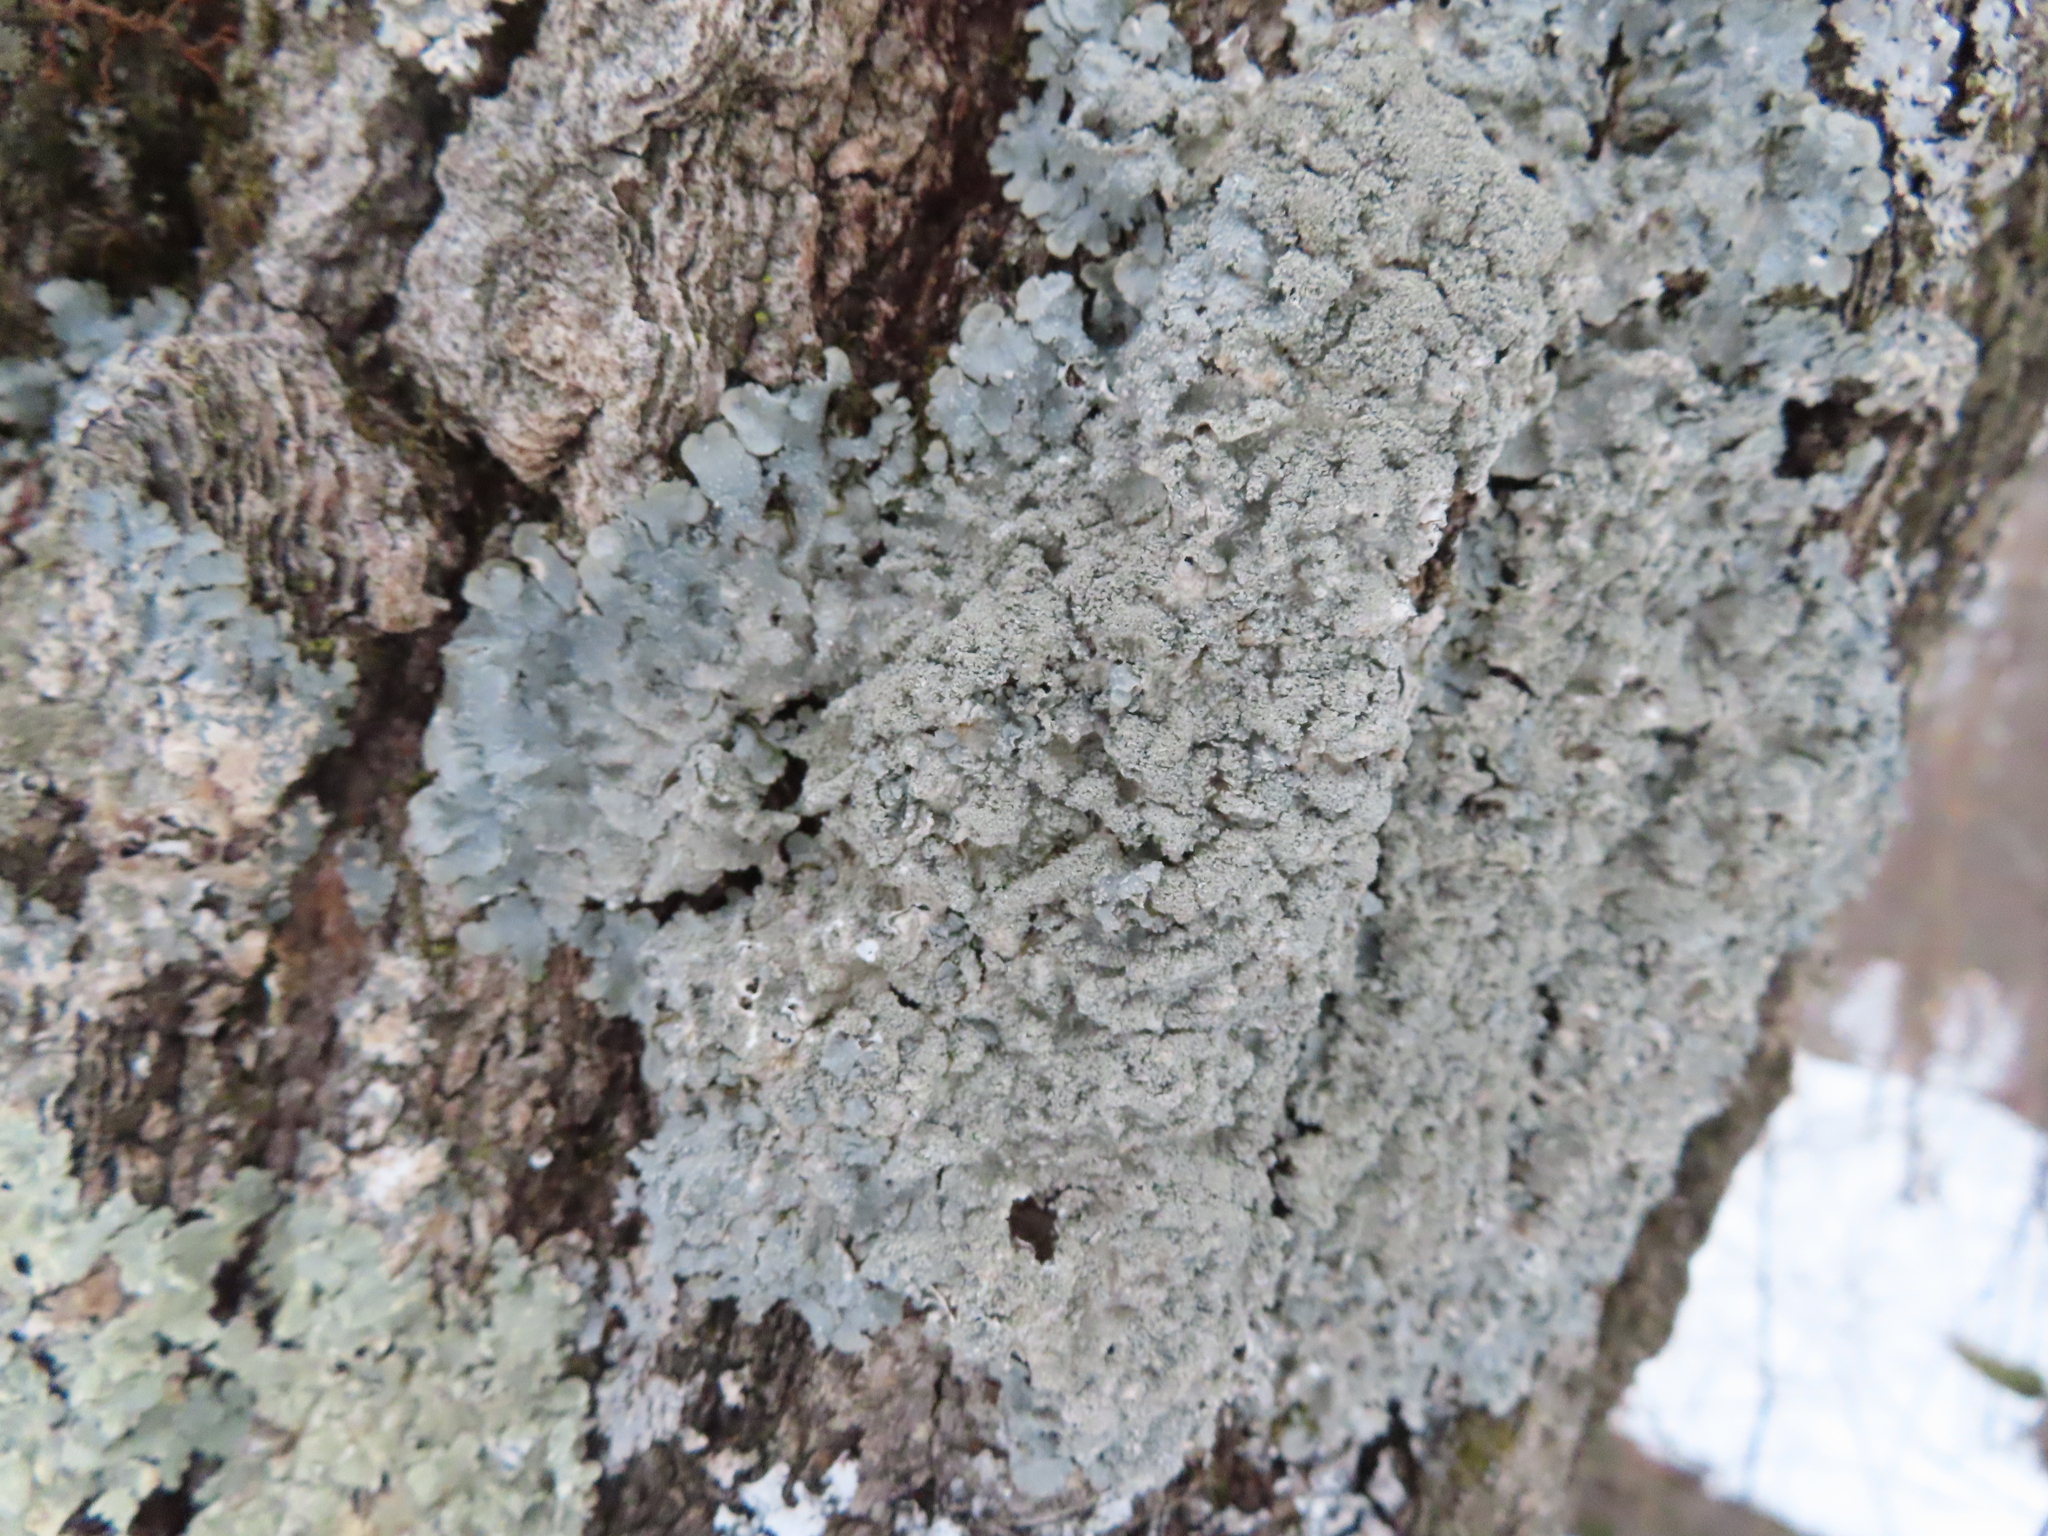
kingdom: Fungi
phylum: Ascomycota
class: Lecanoromycetes
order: Lecanorales
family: Parmeliaceae
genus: Punctelia
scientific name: Punctelia missouriensis
